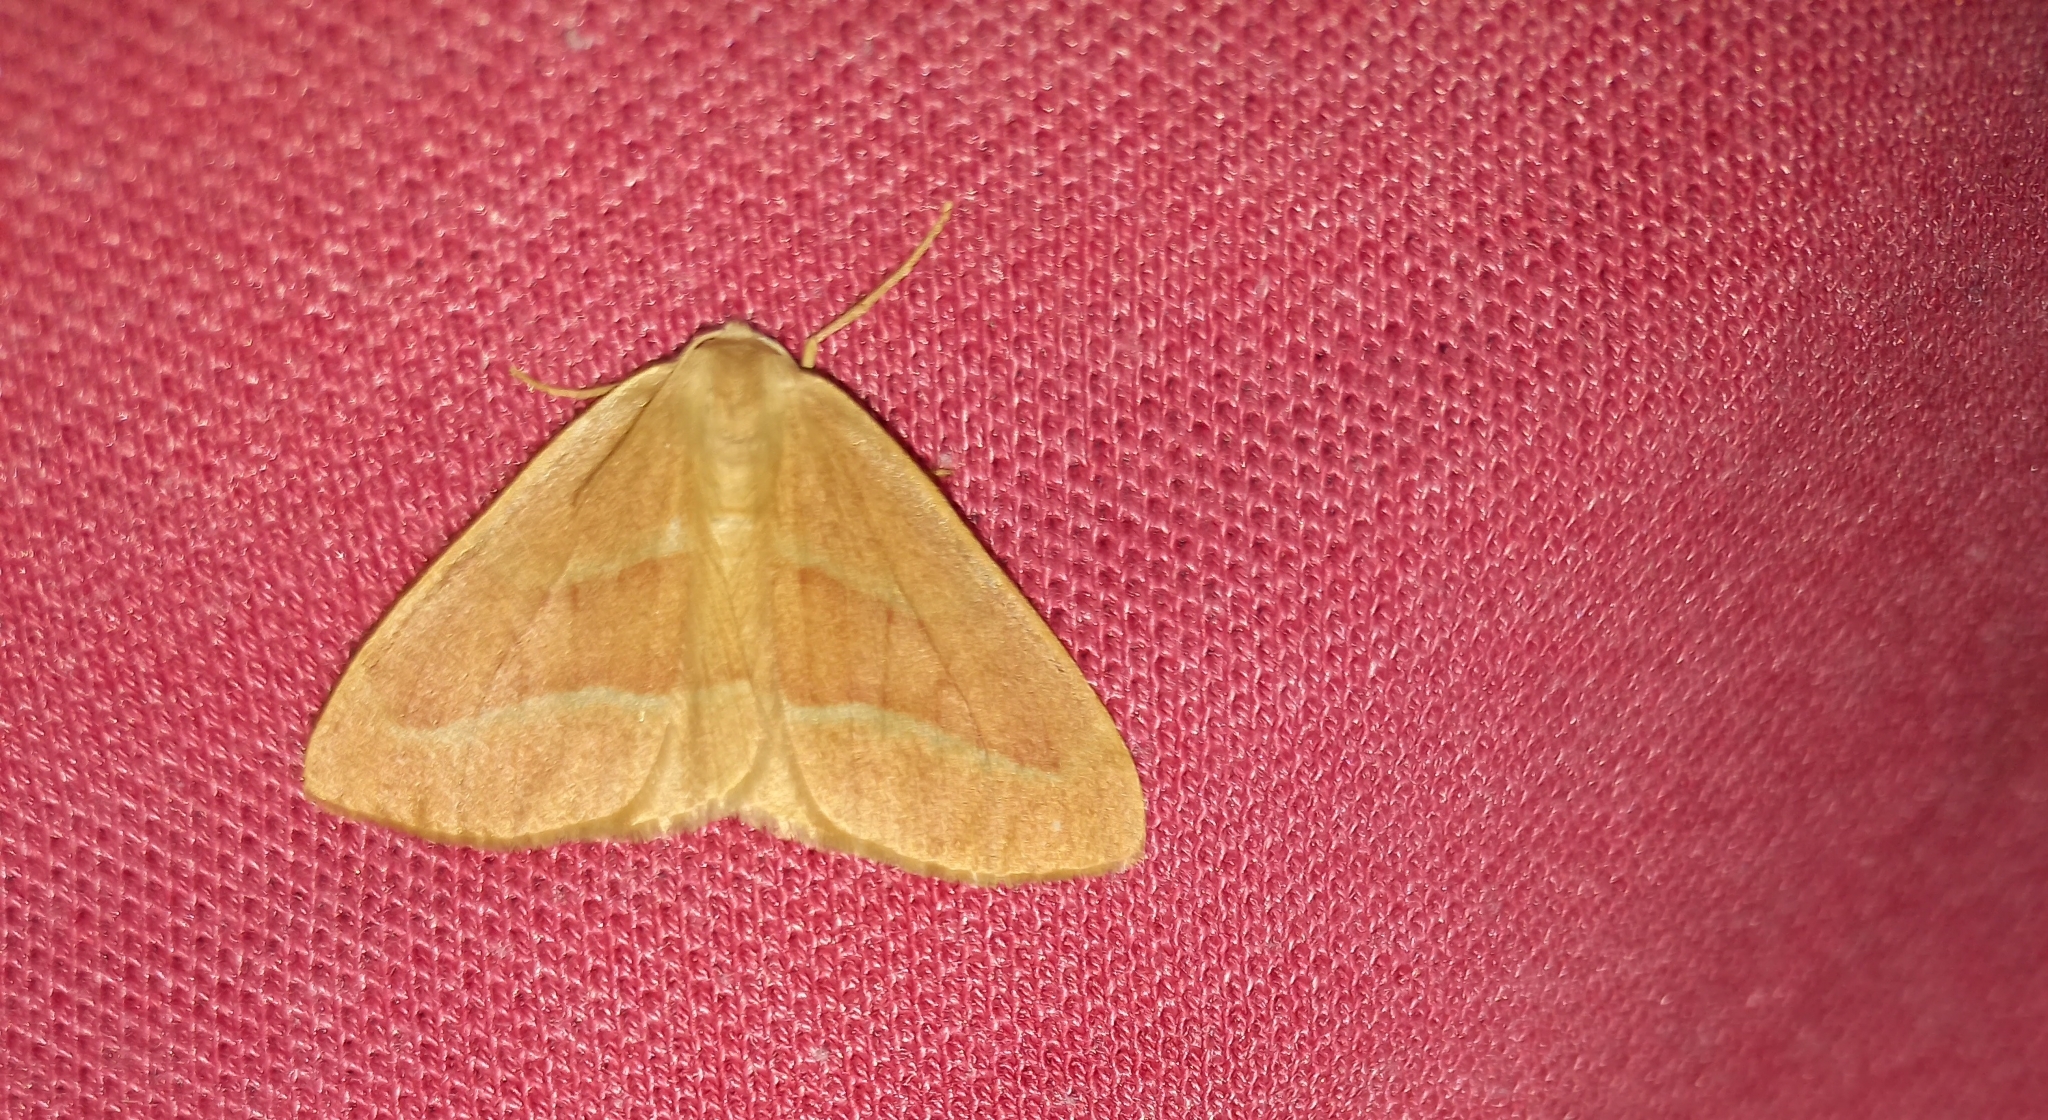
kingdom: Animalia
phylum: Arthropoda
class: Insecta
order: Lepidoptera
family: Geometridae
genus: Hylaea
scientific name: Hylaea fasciaria
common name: Barred red
